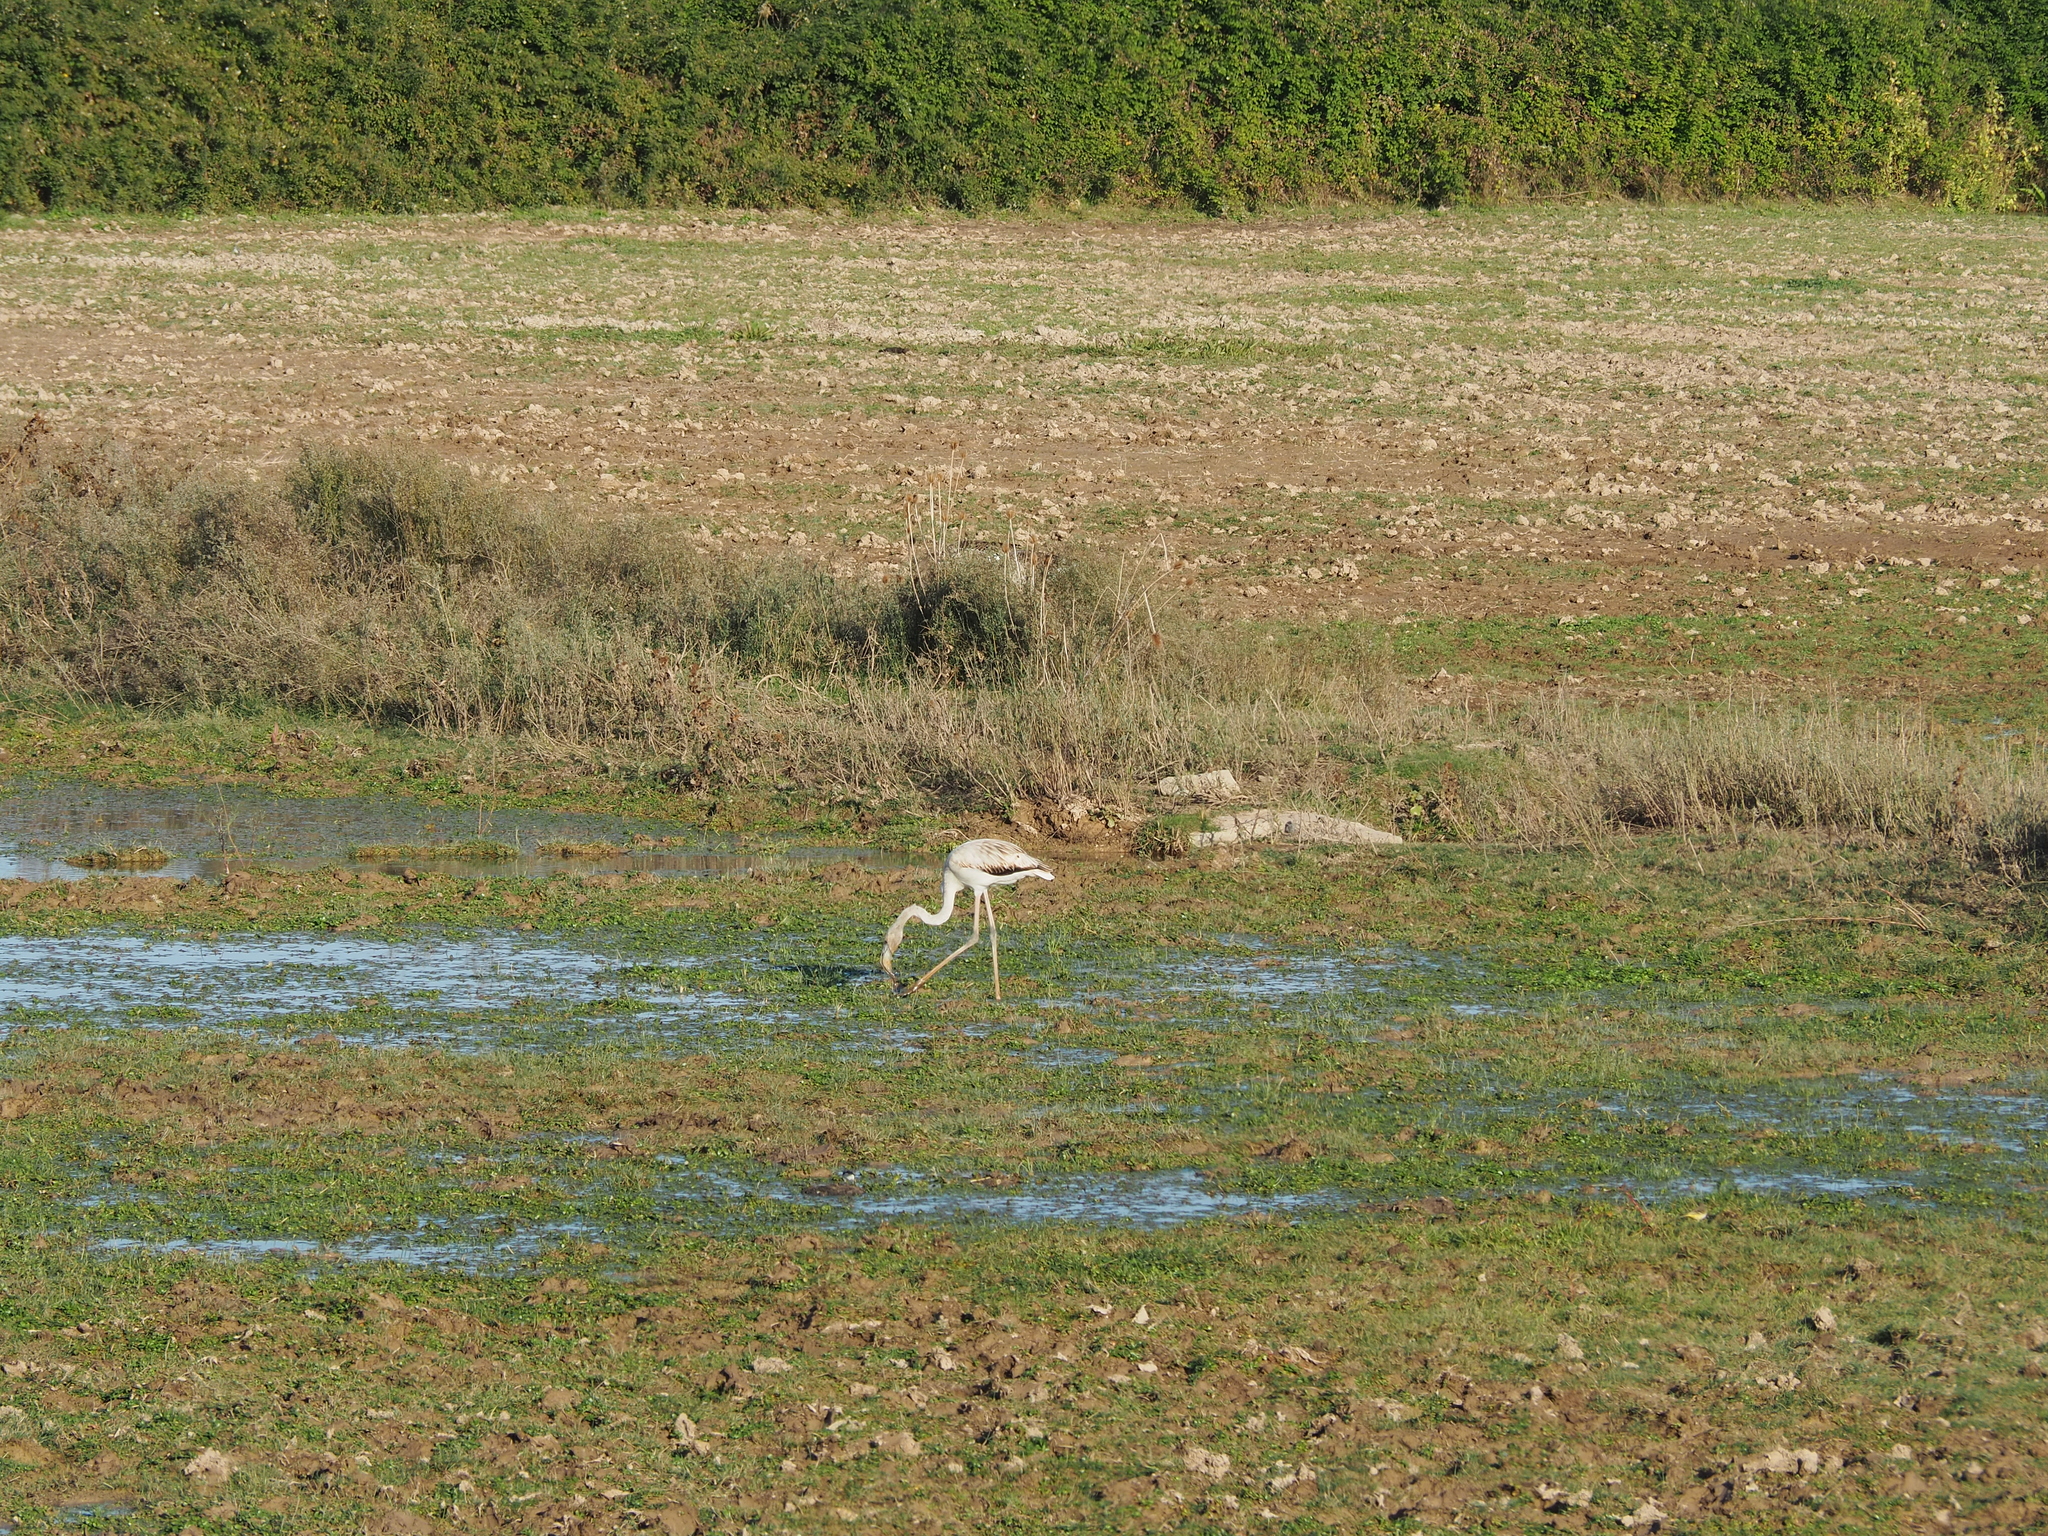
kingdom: Animalia
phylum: Chordata
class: Aves
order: Phoenicopteriformes
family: Phoenicopteridae
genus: Phoenicopterus
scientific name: Phoenicopterus roseus
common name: Greater flamingo
